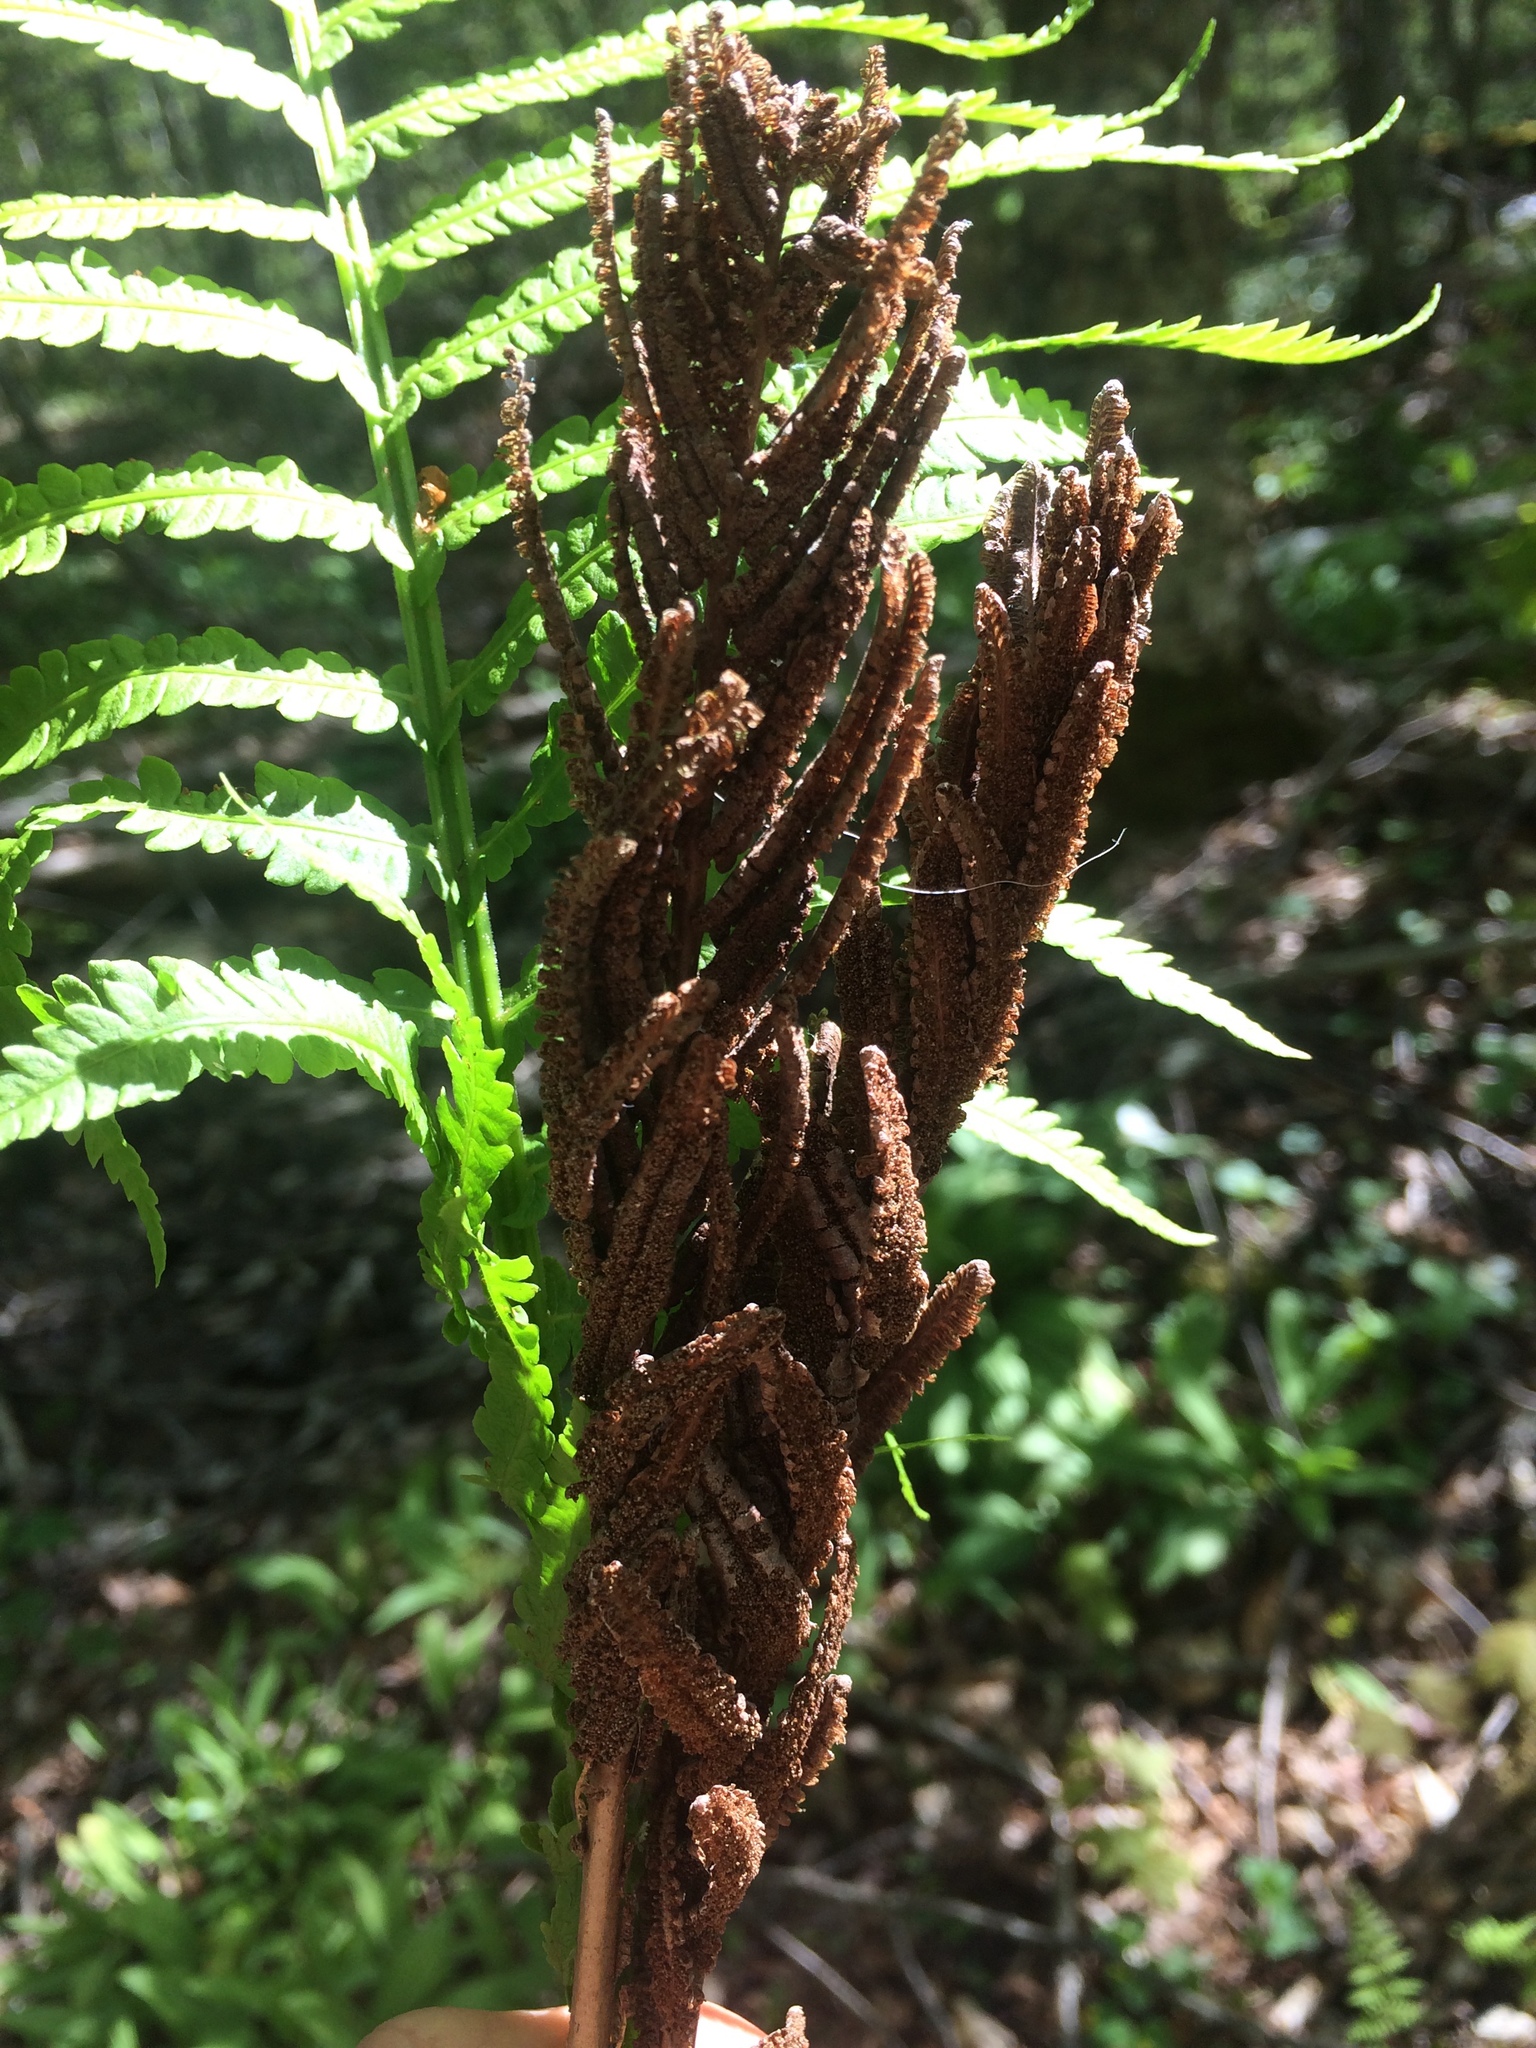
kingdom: Plantae
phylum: Tracheophyta
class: Polypodiopsida
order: Polypodiales
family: Onocleaceae
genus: Matteuccia
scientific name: Matteuccia struthiopteris
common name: Ostrich fern
